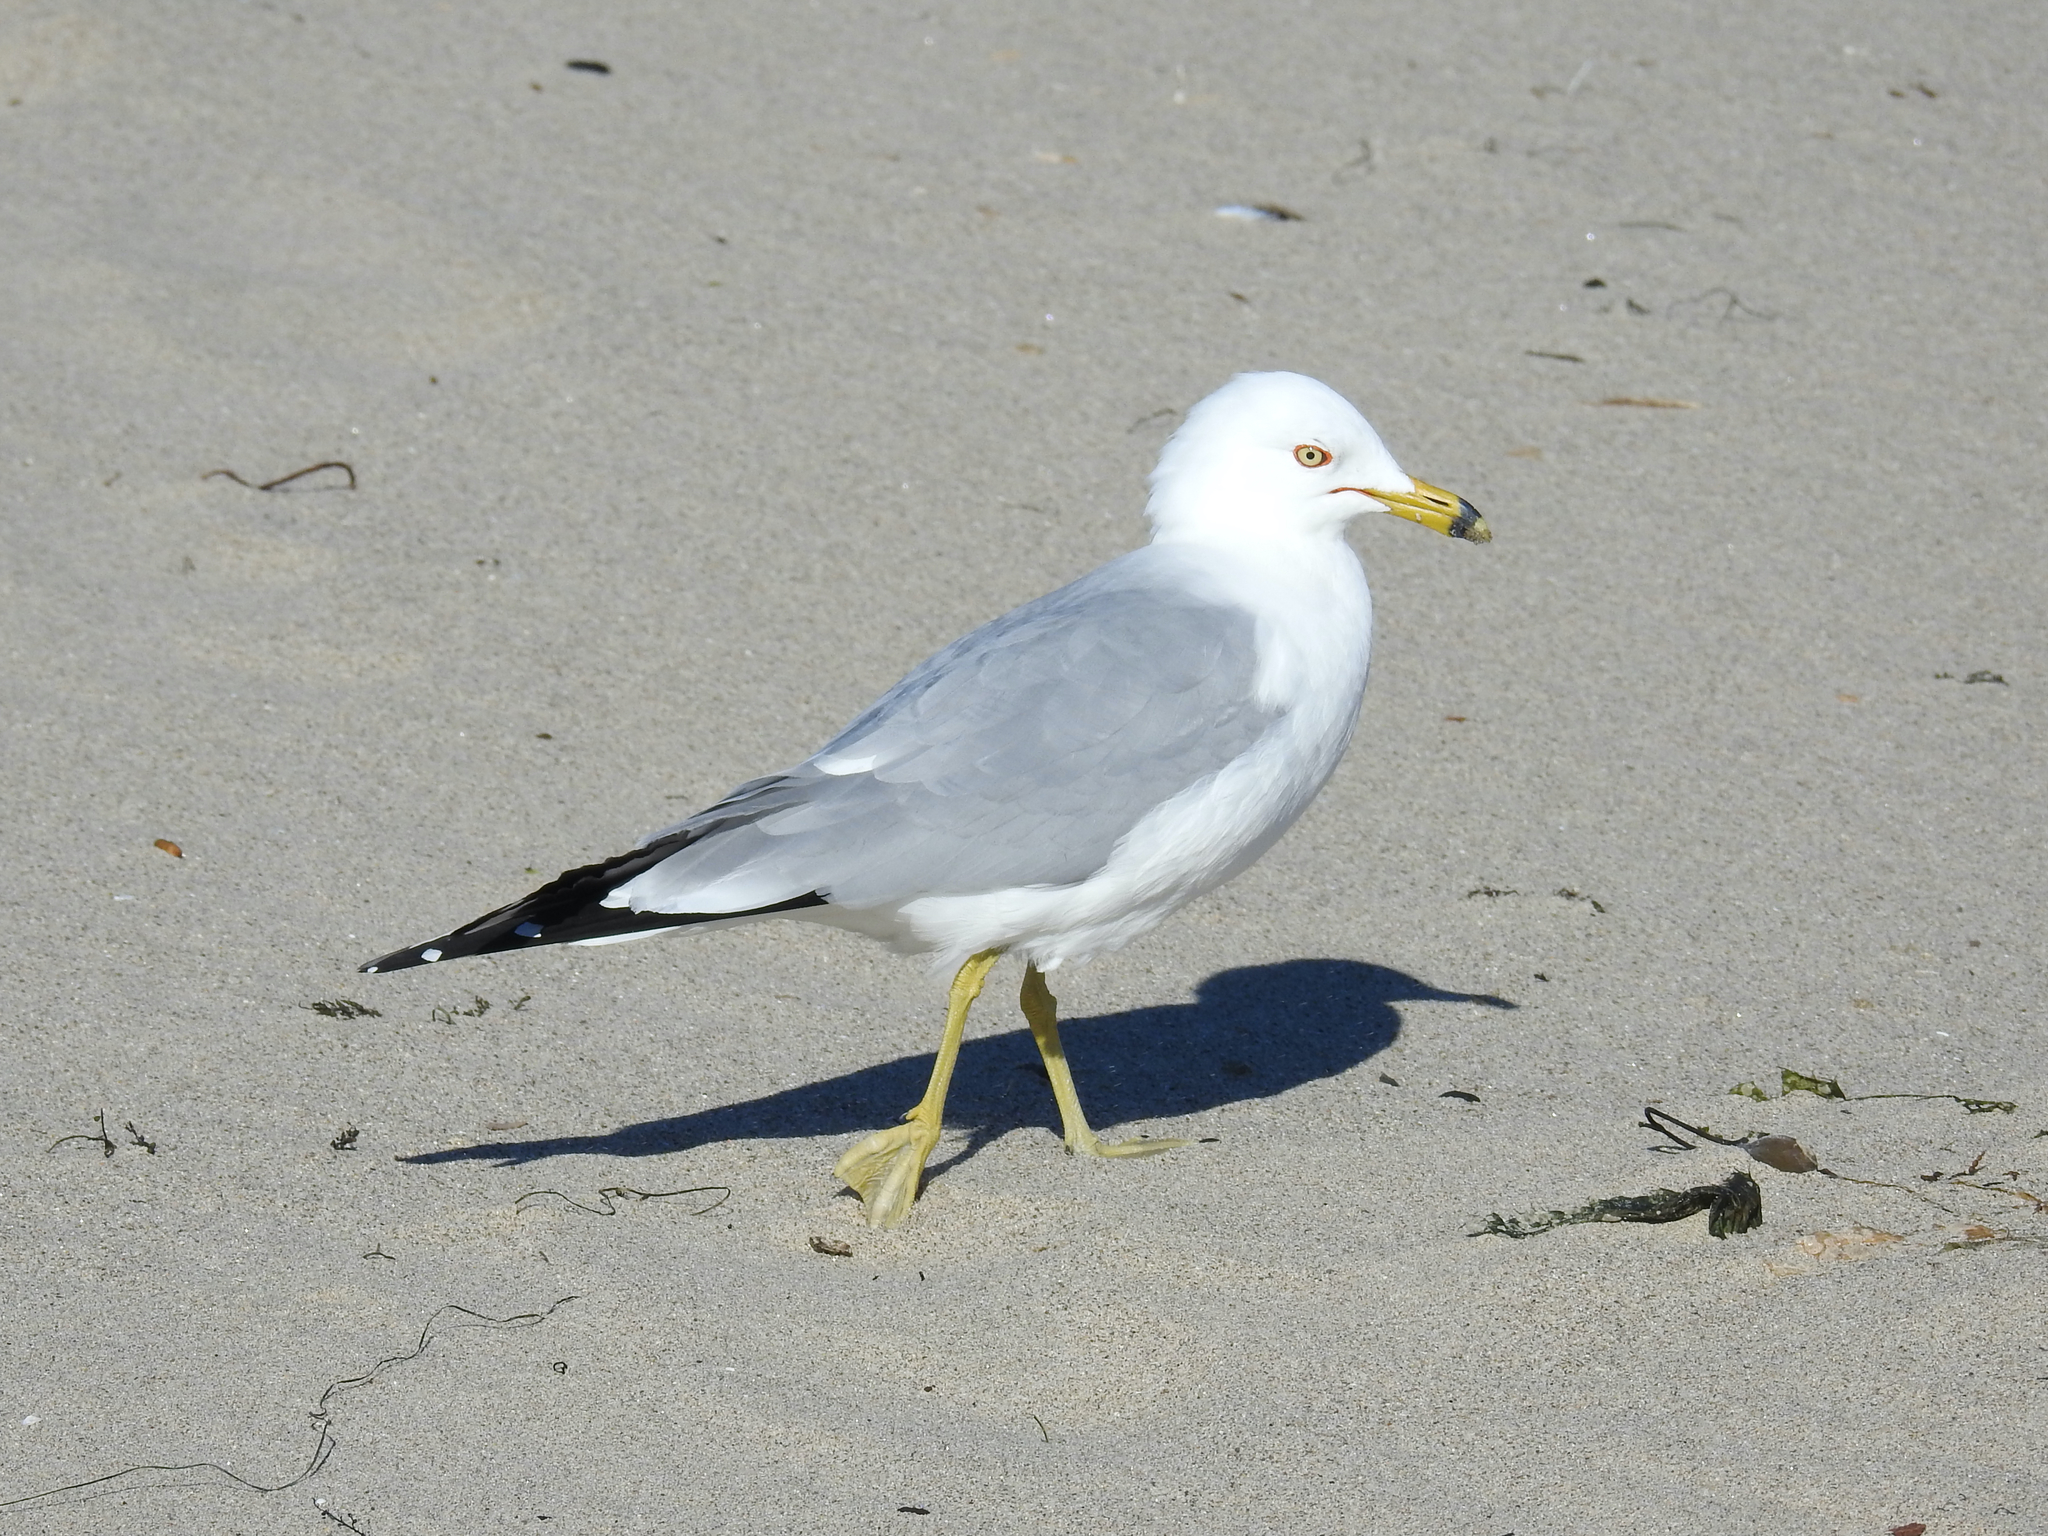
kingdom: Animalia
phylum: Chordata
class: Aves
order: Charadriiformes
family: Laridae
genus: Larus
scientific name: Larus delawarensis
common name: Ring-billed gull
